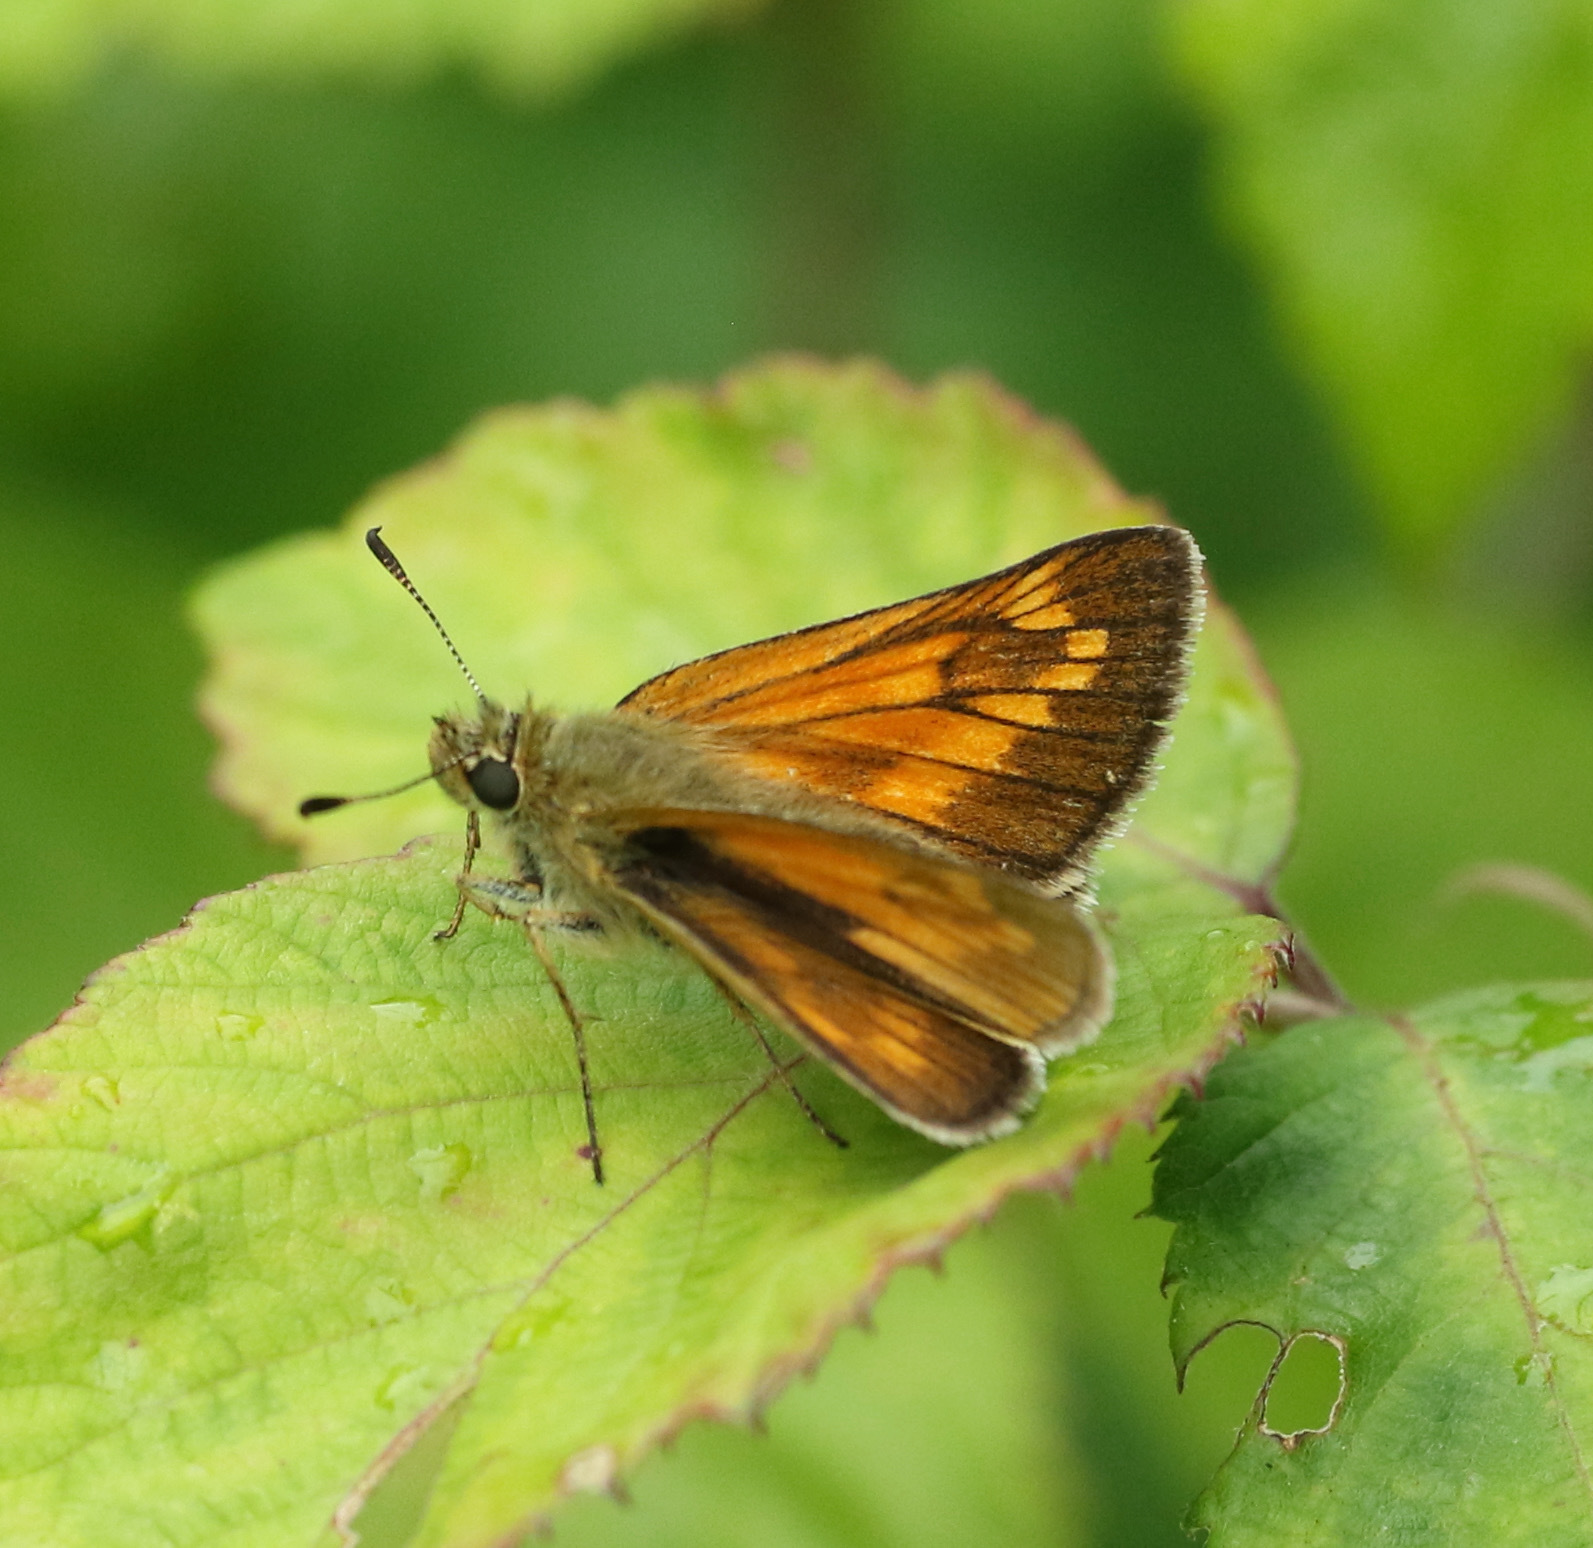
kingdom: Animalia
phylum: Arthropoda
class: Insecta
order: Lepidoptera
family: Hesperiidae
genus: Ochlodes
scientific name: Ochlodes venata
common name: Large skipper
